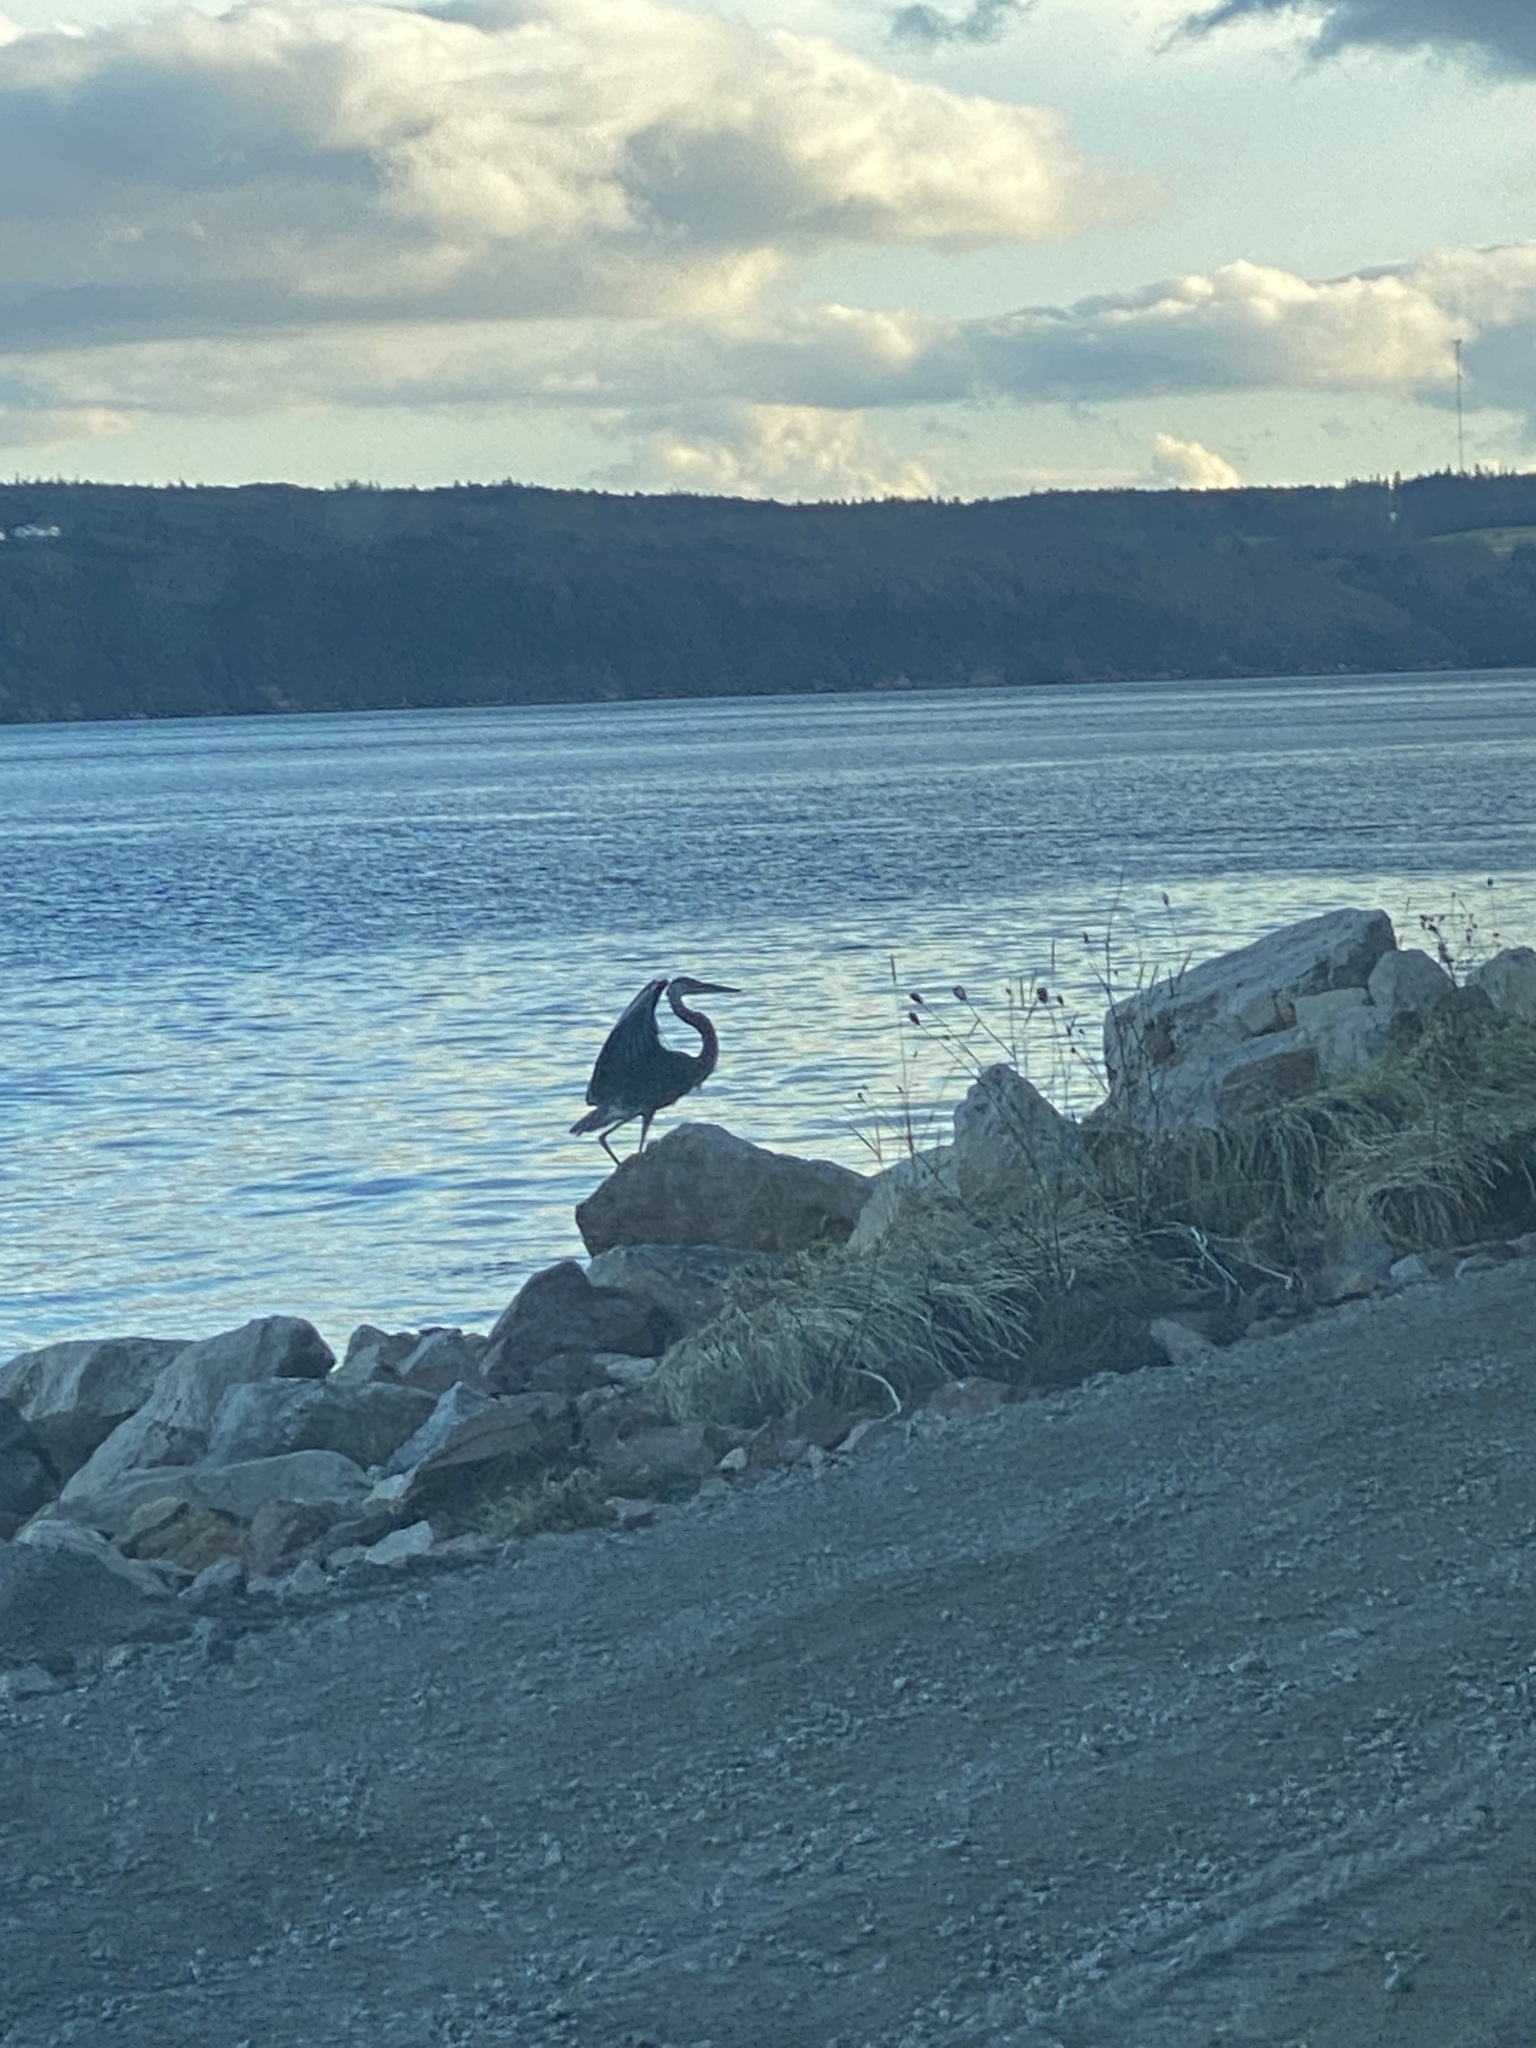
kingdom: Animalia
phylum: Chordata
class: Aves
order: Pelecaniformes
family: Ardeidae
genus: Ardea
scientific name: Ardea herodias
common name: Great blue heron
